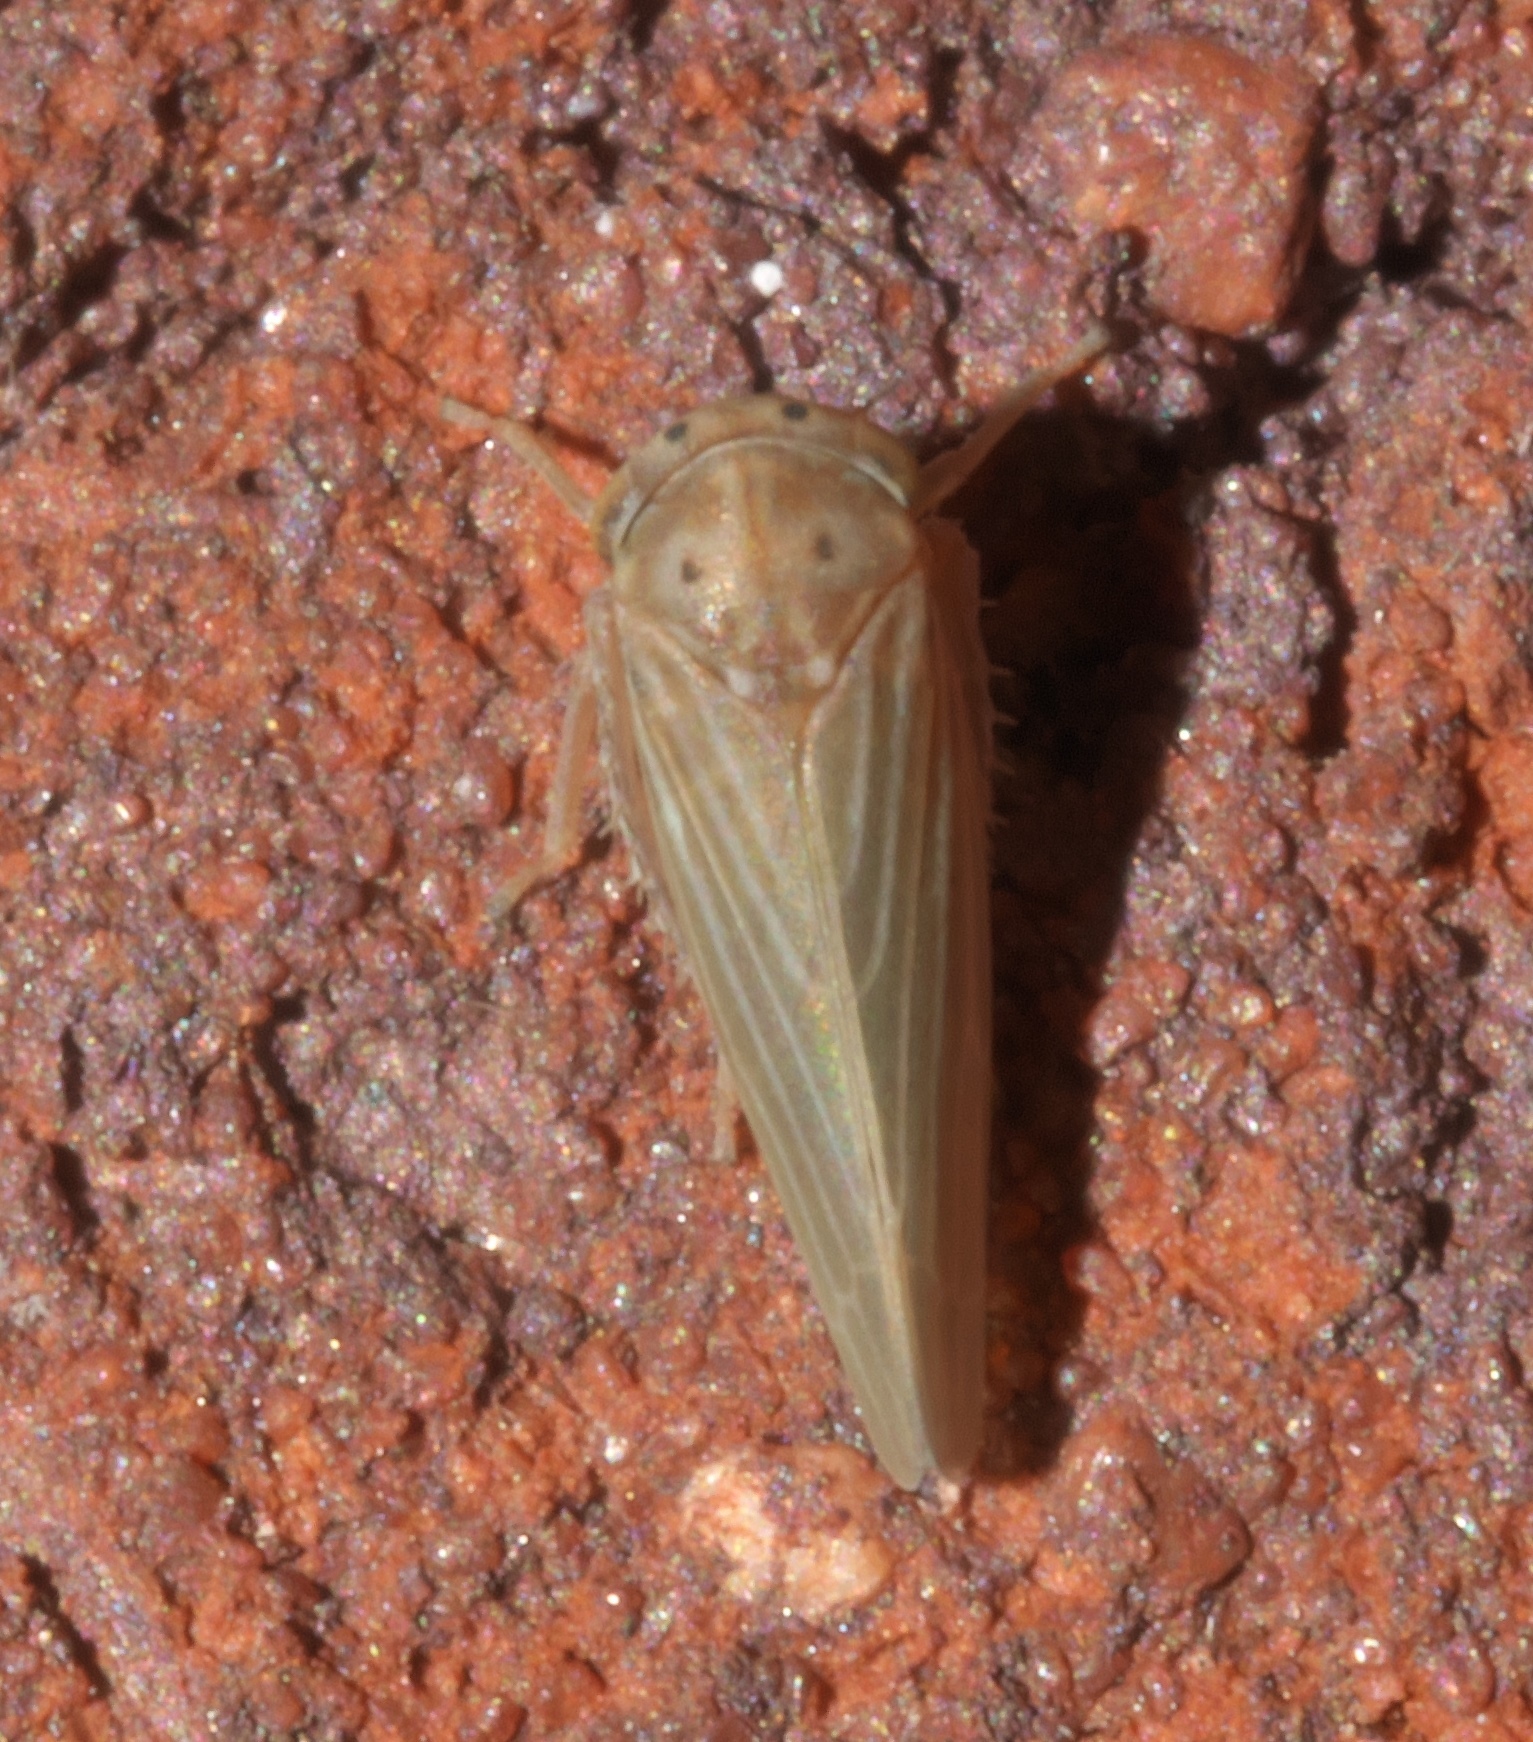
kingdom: Animalia
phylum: Arthropoda
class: Insecta
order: Hemiptera
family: Cicadellidae
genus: Agallia
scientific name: Agallia constricta
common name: The constricted leafhopper
